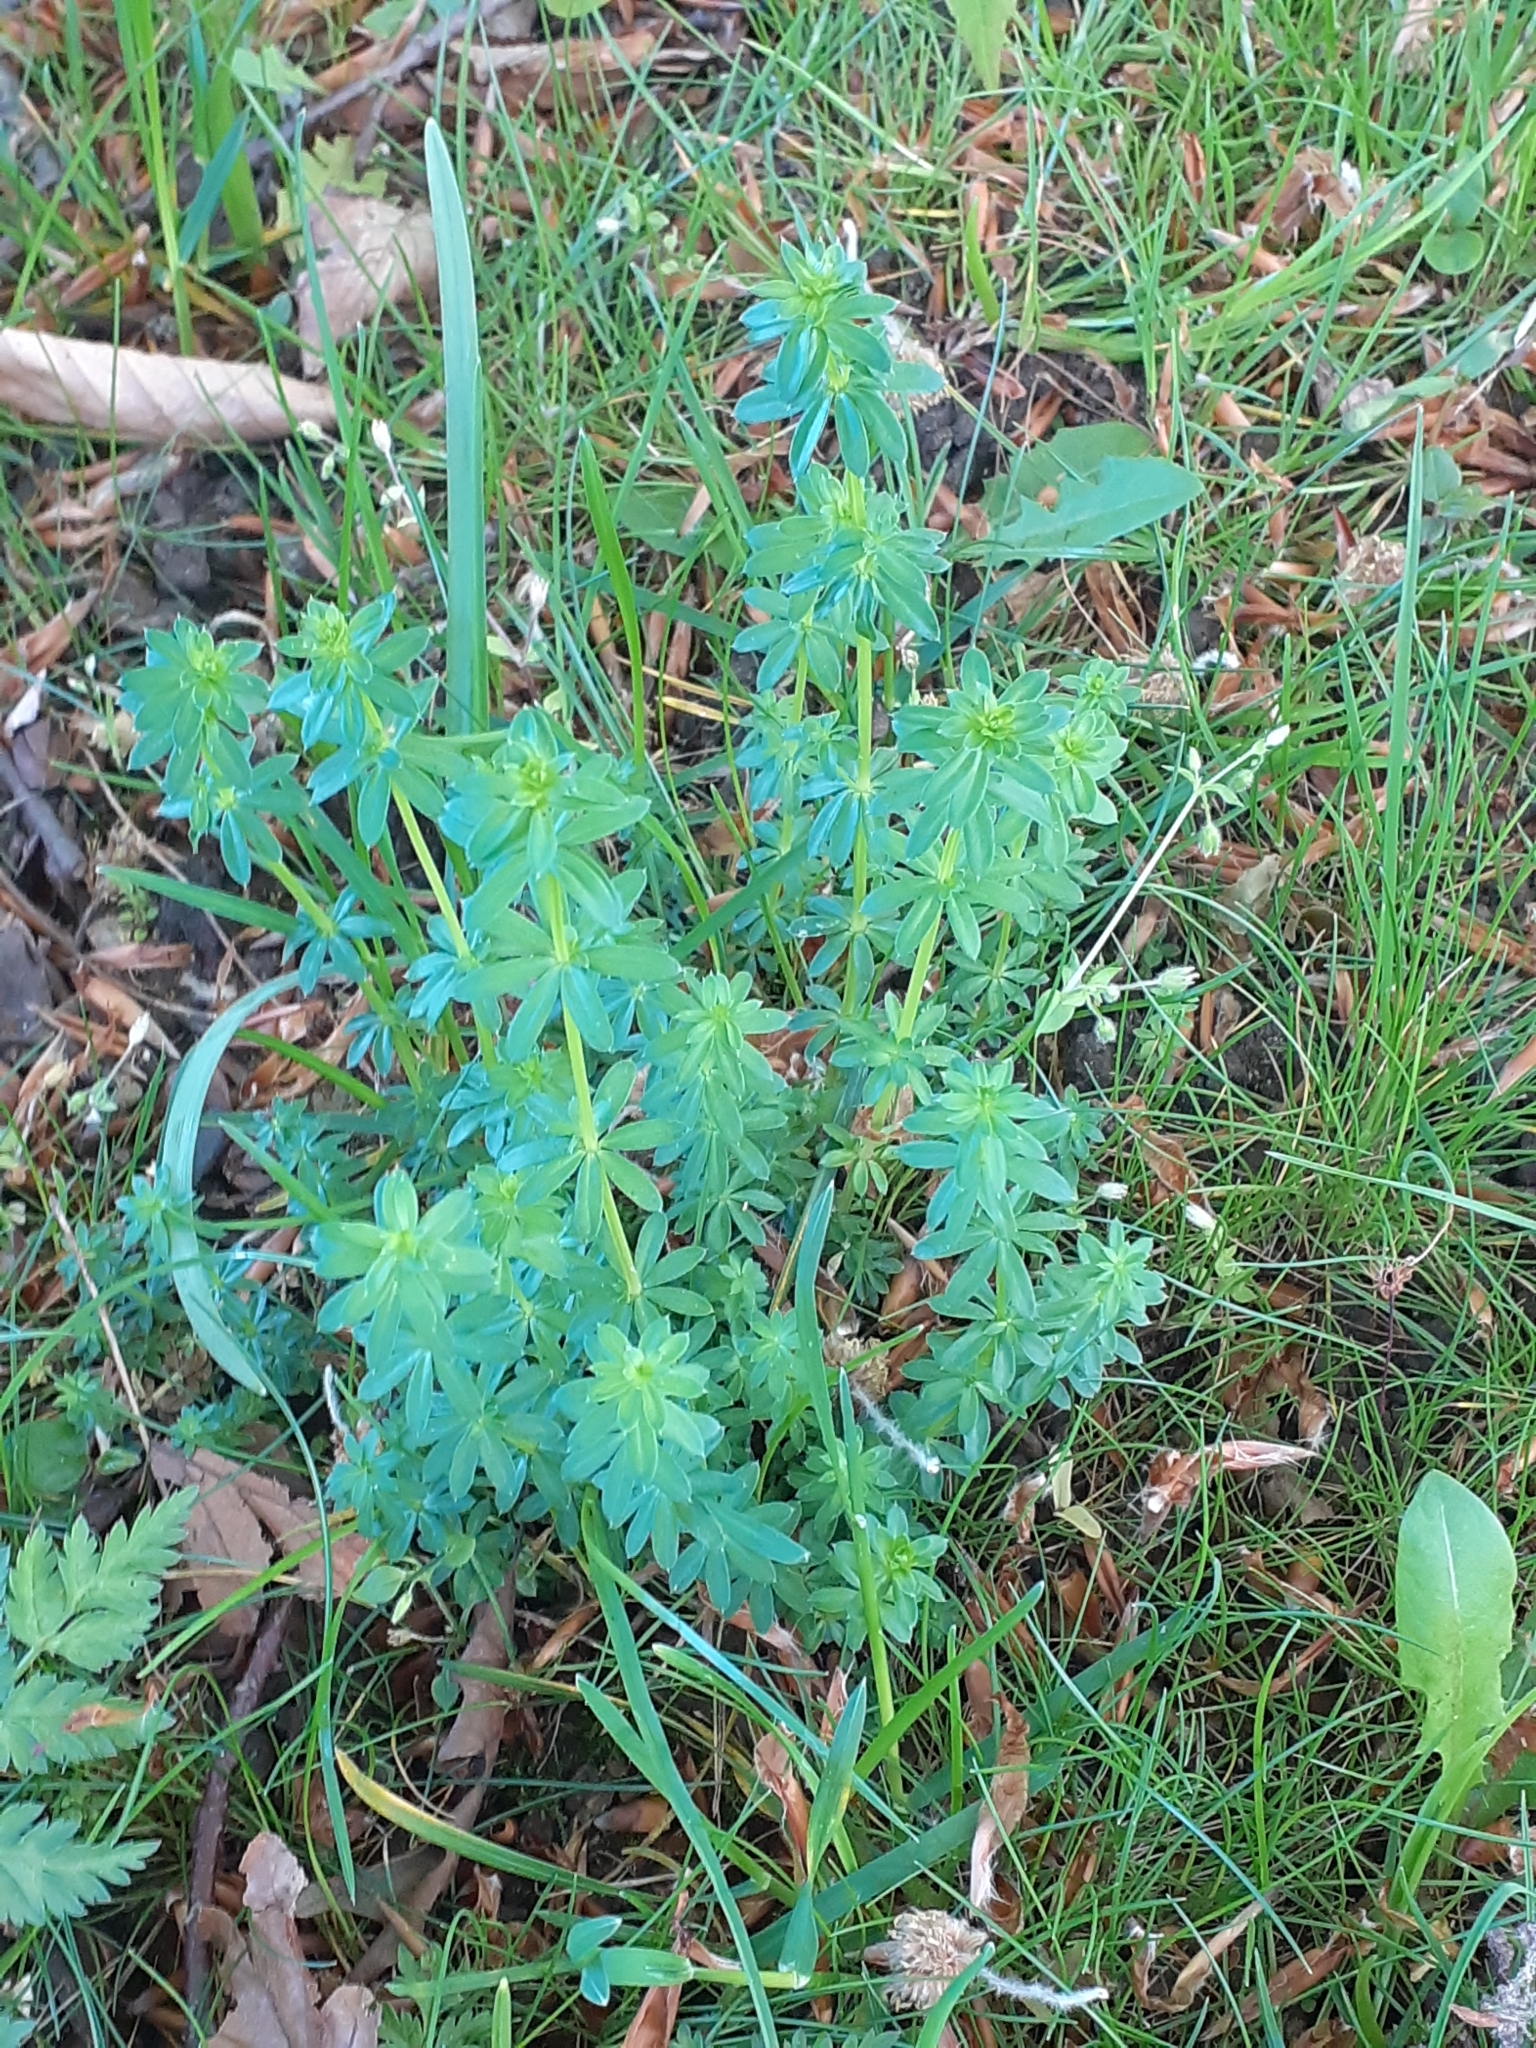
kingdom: Plantae
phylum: Tracheophyta
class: Magnoliopsida
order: Gentianales
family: Rubiaceae
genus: Galium
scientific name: Galium album
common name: White bedstraw
